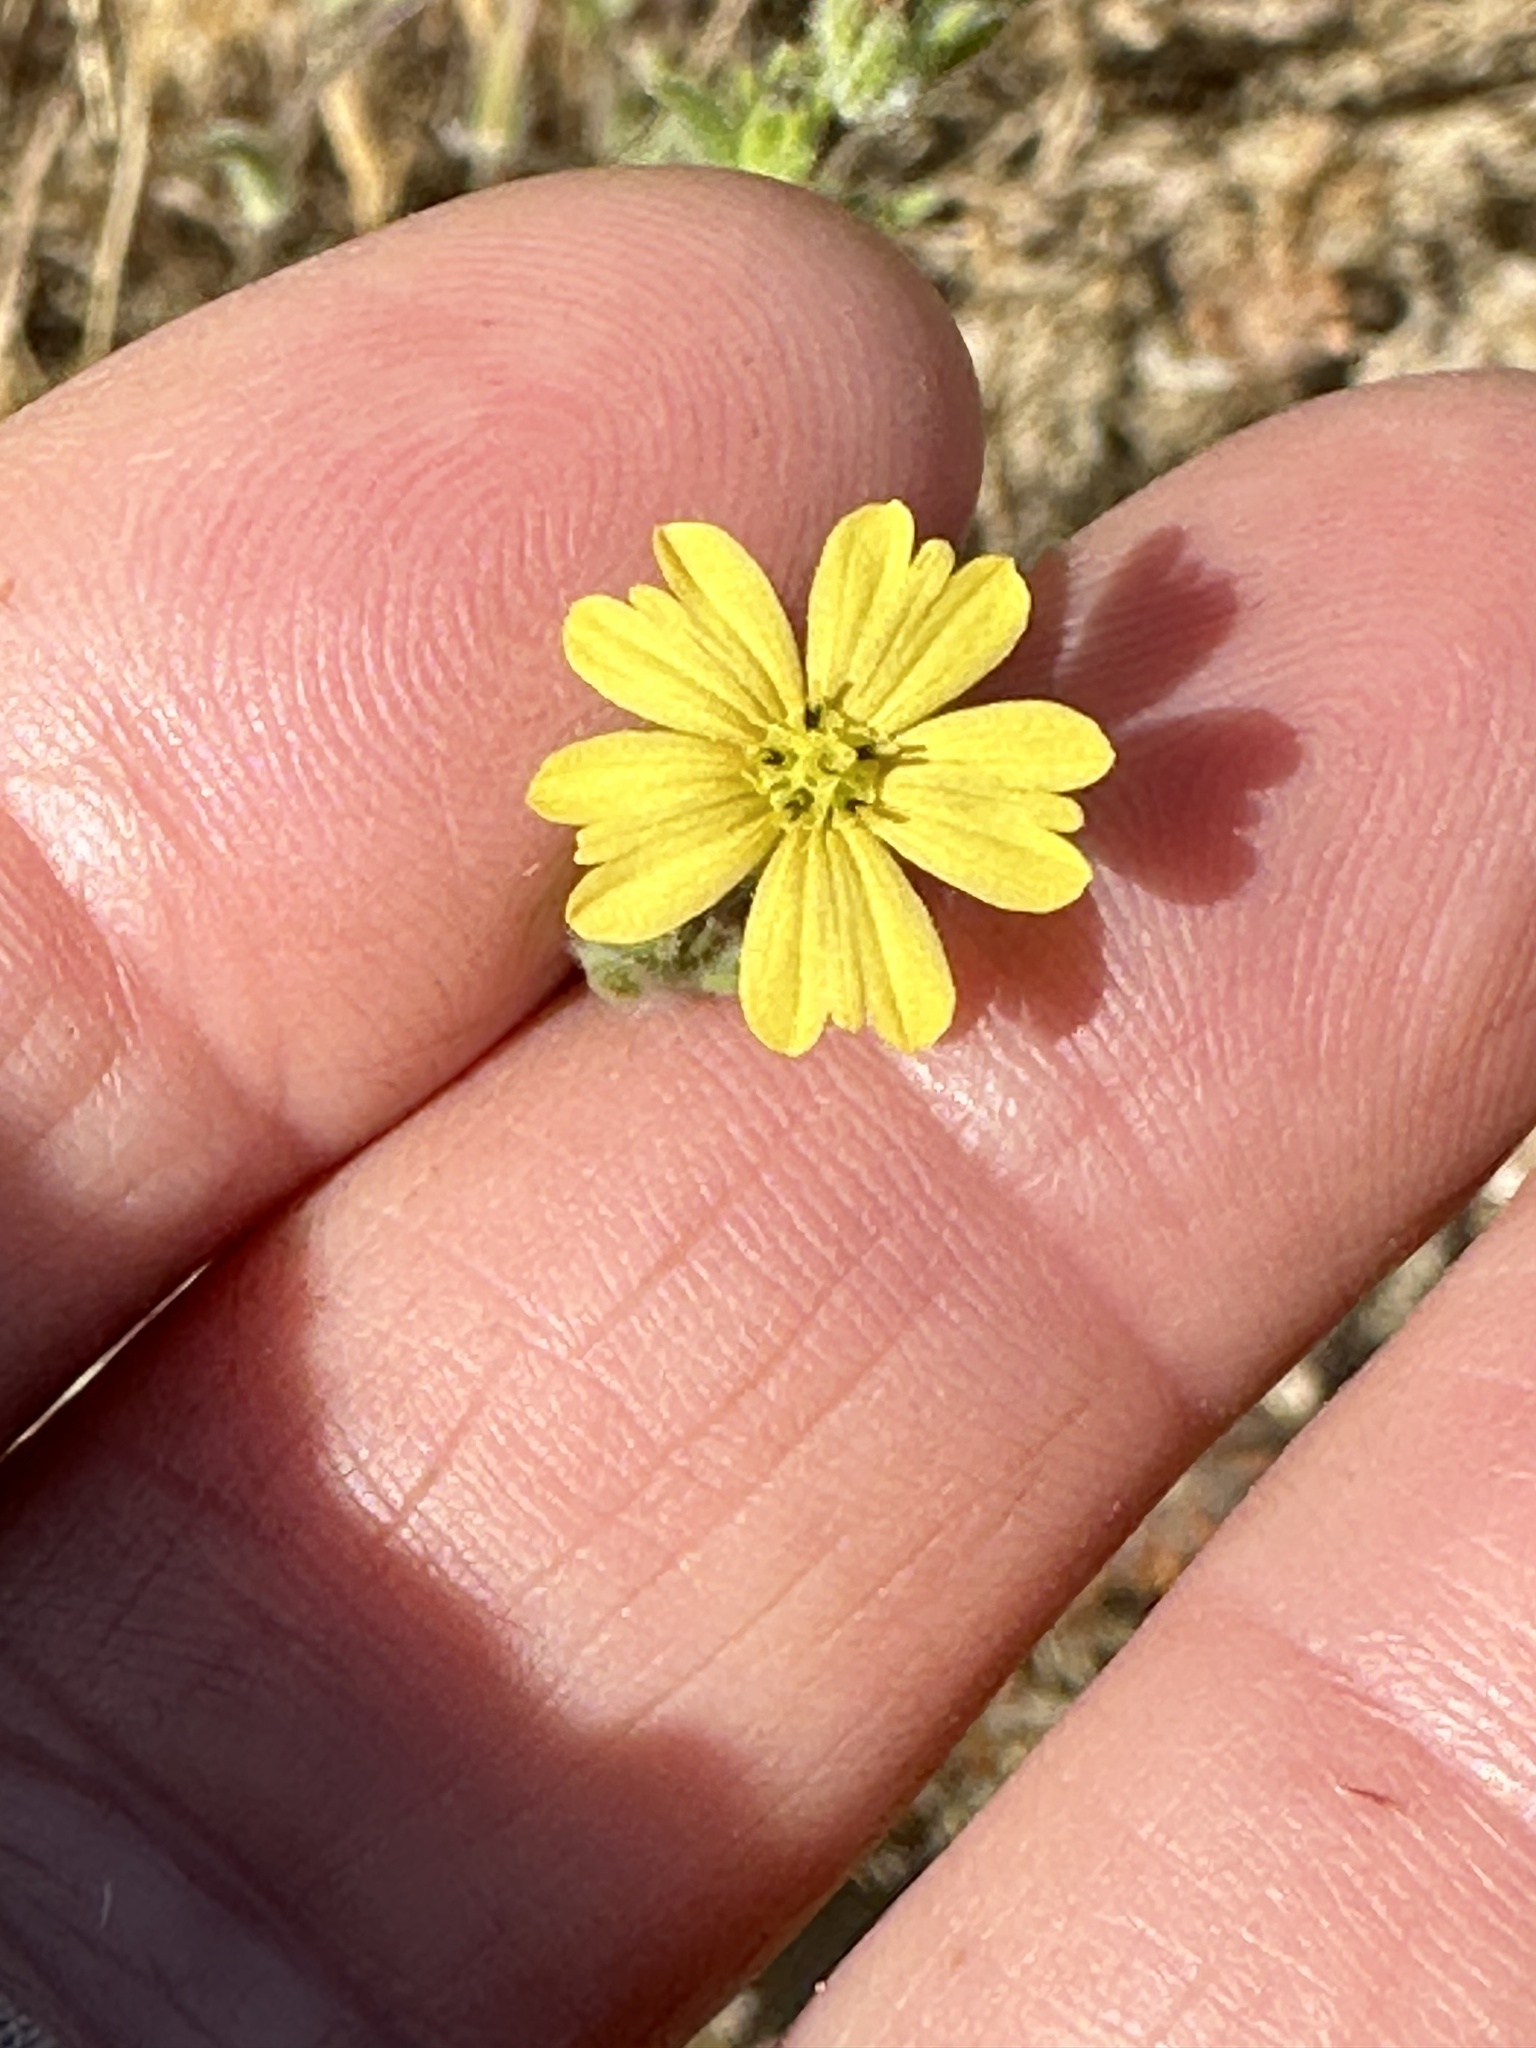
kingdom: Plantae
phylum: Tracheophyta
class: Magnoliopsida
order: Asterales
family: Asteraceae
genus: Lagophylla
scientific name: Lagophylla ramosissima
